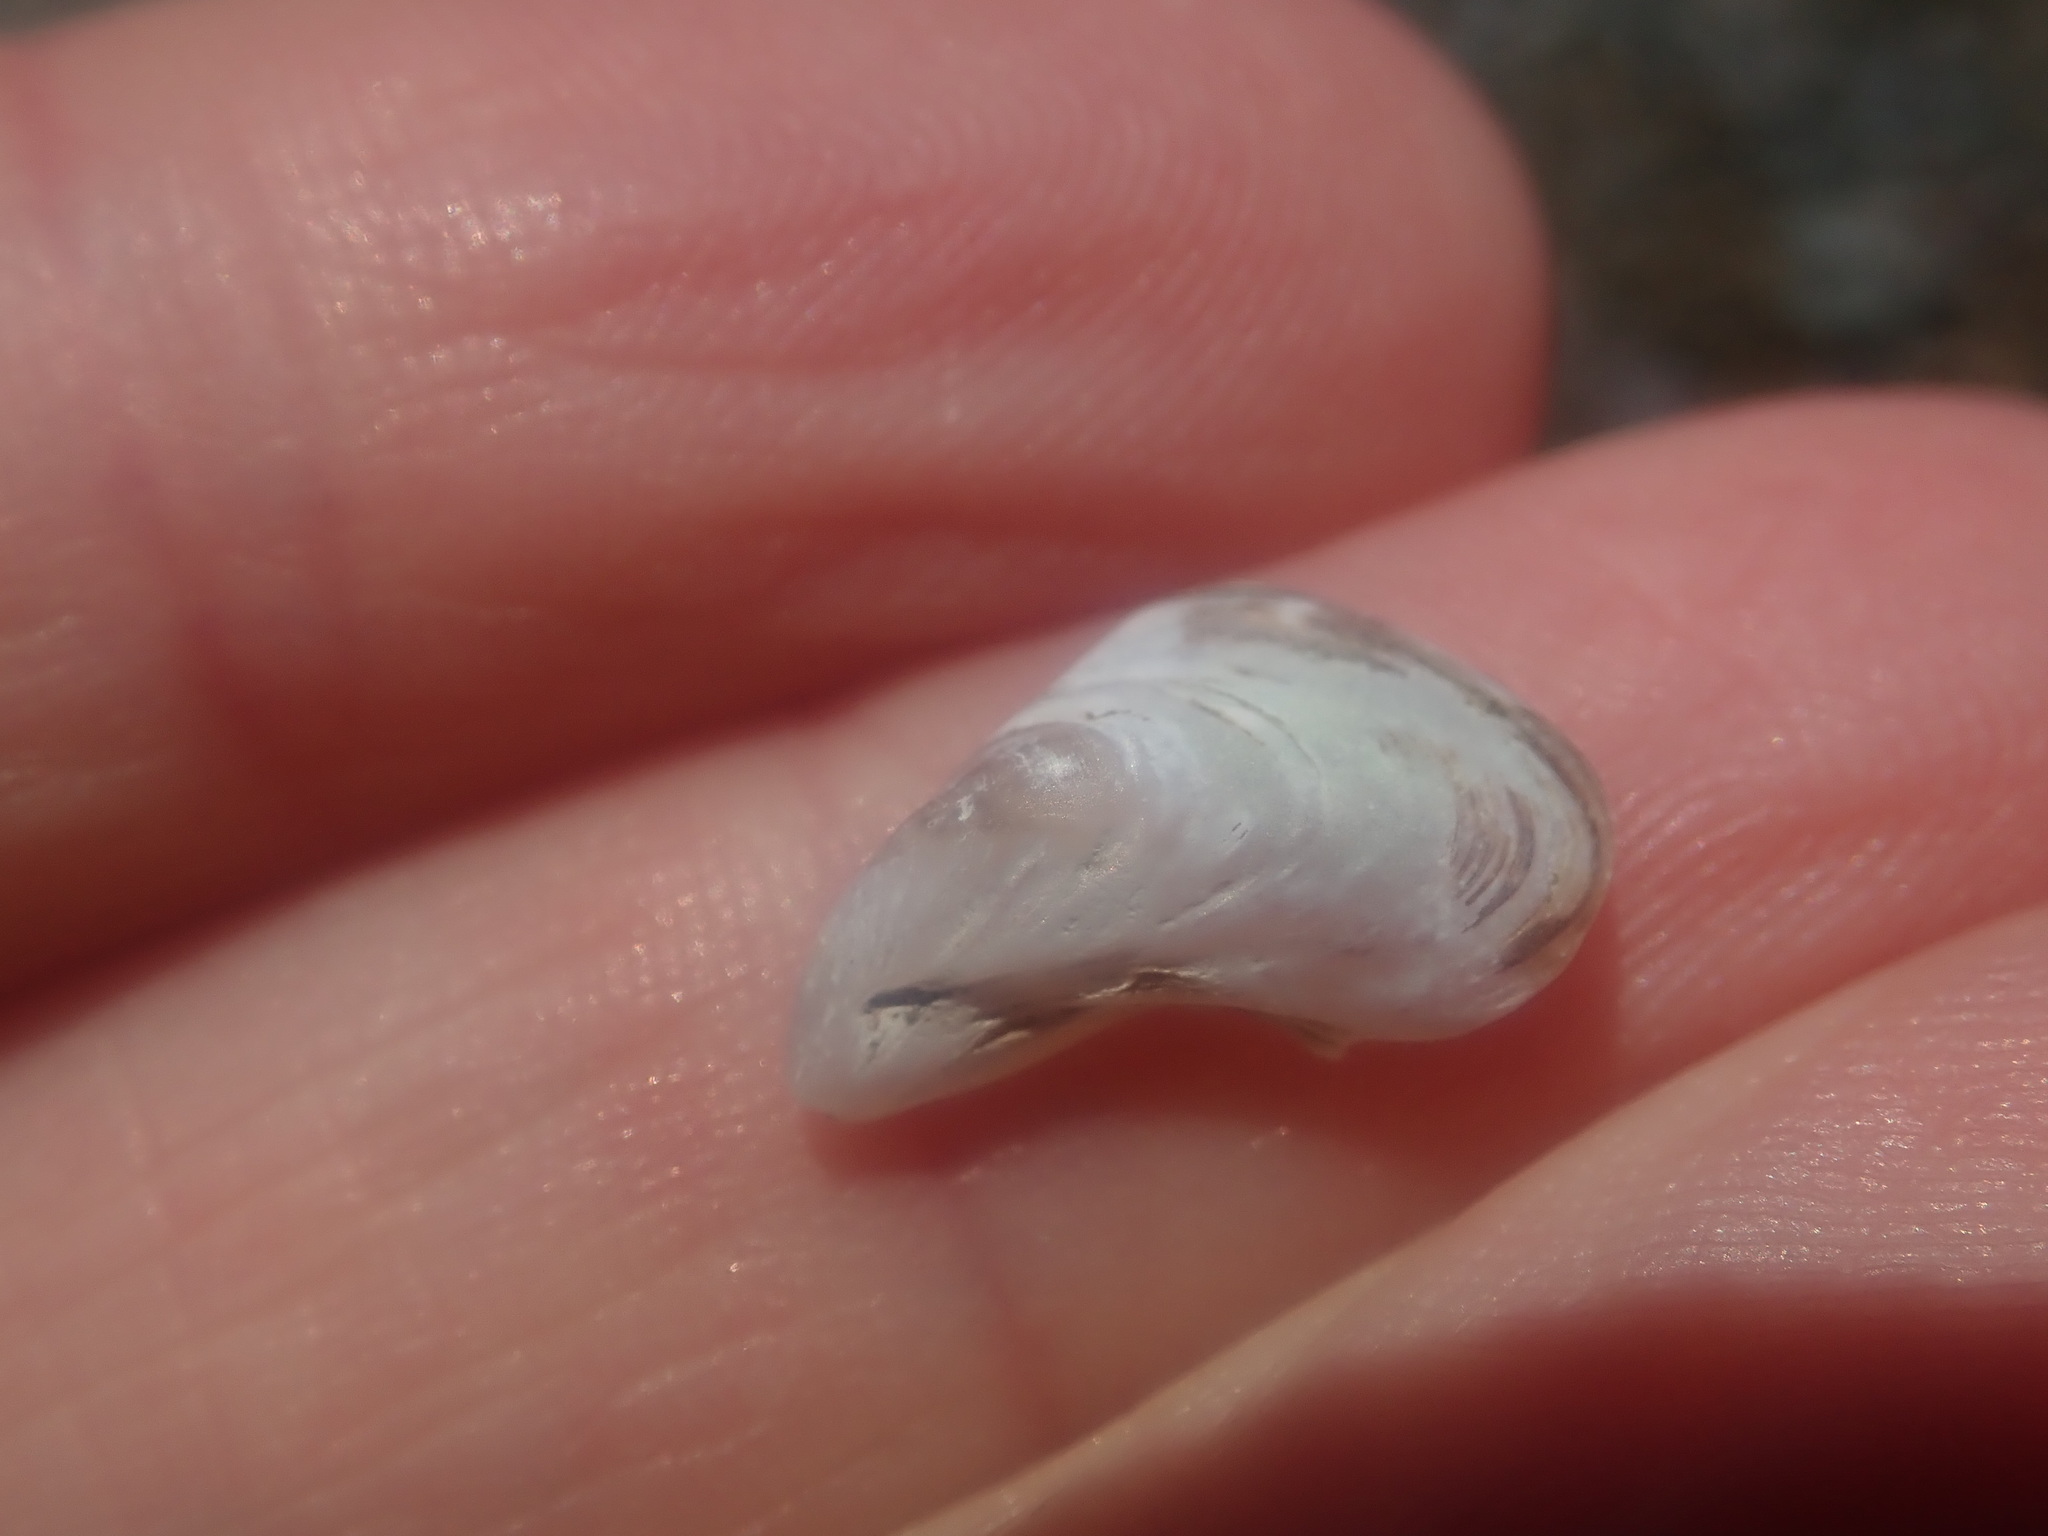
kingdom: Animalia
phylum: Mollusca
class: Bivalvia
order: Myida
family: Dreissenidae
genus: Dreissena
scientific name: Dreissena bugensis
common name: Quagga mussel
